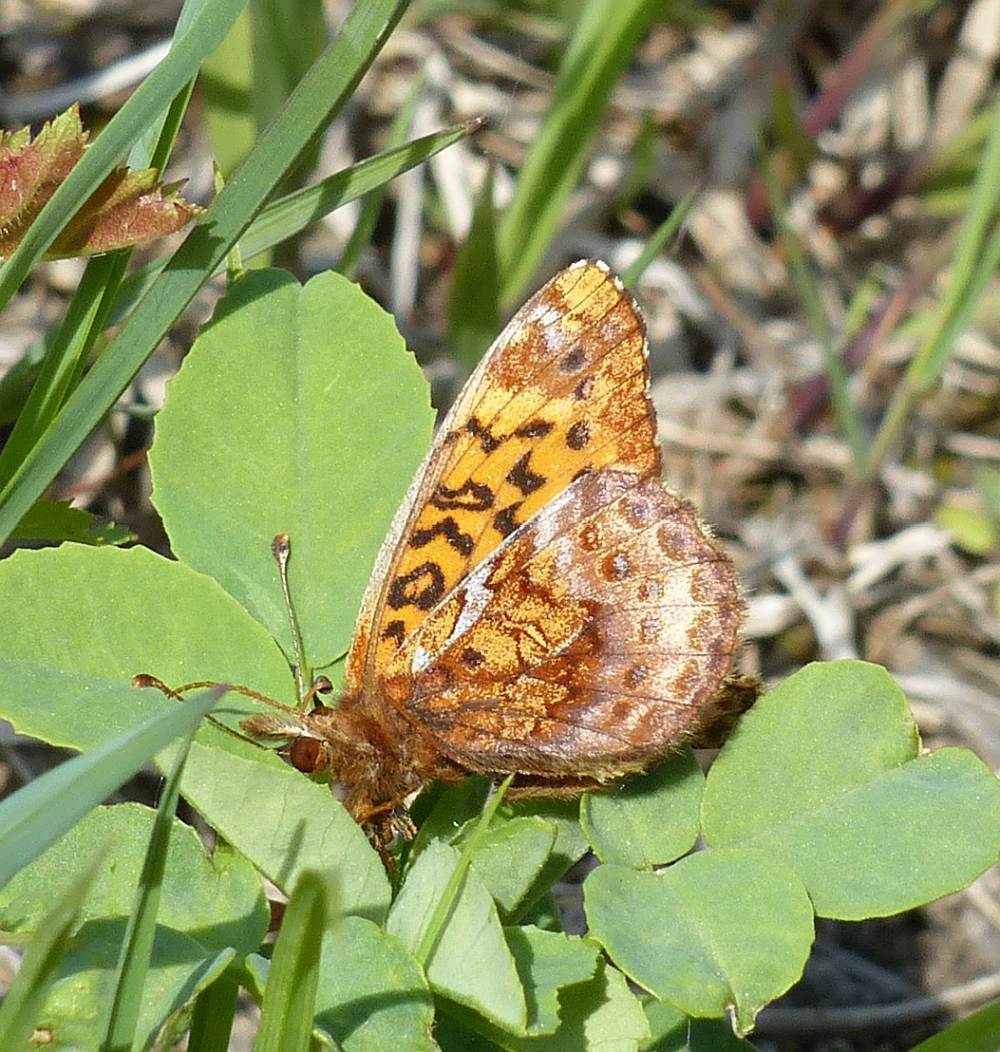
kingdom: Animalia
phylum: Arthropoda
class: Insecta
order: Lepidoptera
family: Nymphalidae
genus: Clossiana
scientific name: Clossiana toddi
